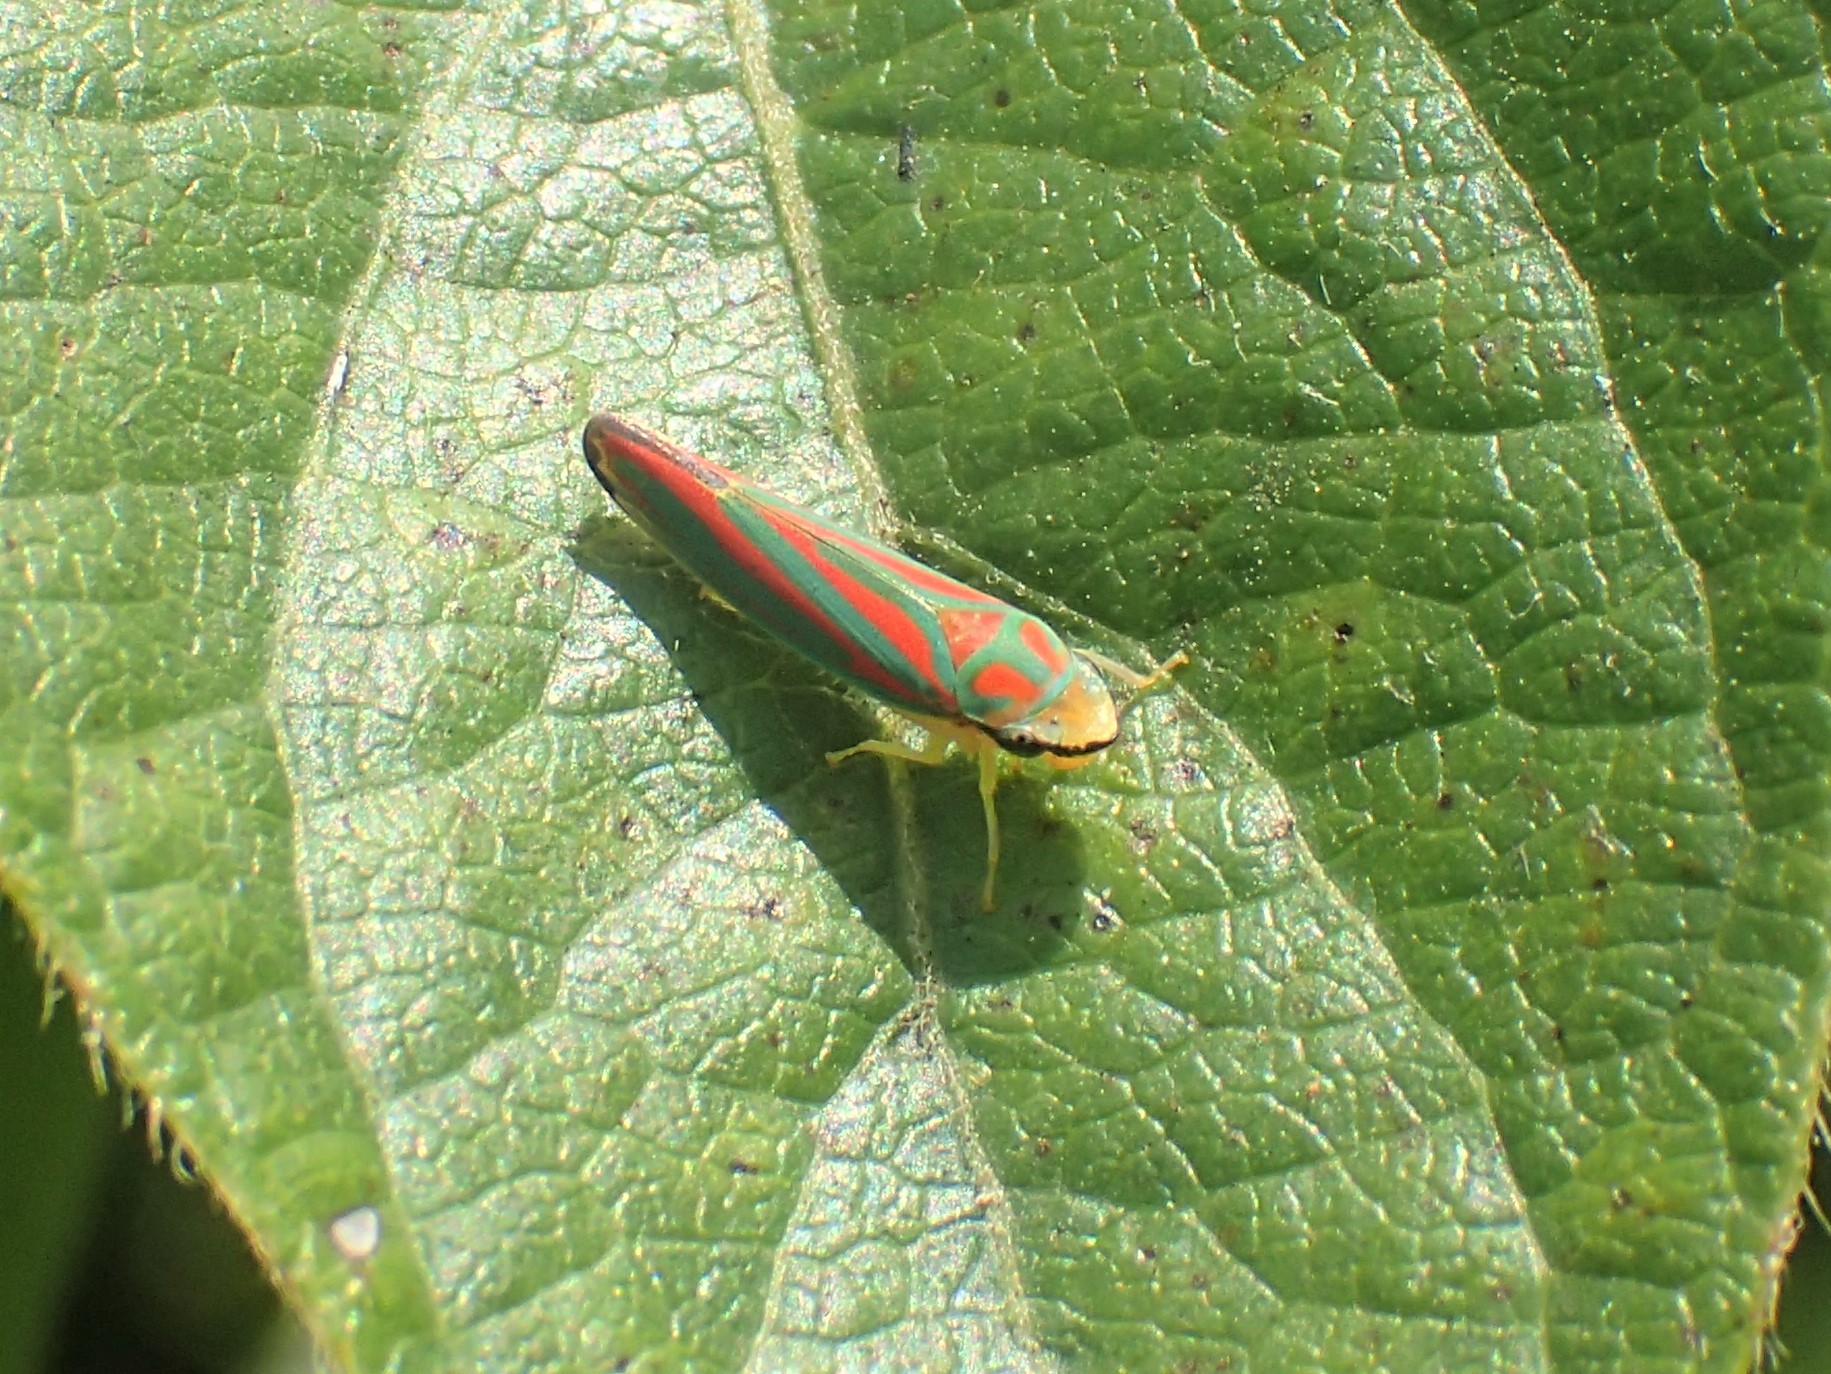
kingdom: Animalia
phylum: Arthropoda
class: Insecta
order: Hemiptera
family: Cicadellidae
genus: Graphocephala
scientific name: Graphocephala coccinea
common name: Candy-striped leafhopper
